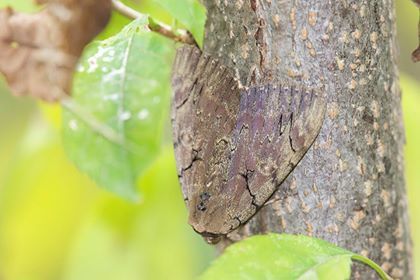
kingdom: Animalia
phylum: Arthropoda
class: Insecta
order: Lepidoptera
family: Erebidae
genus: Catocala
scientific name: Catocala cara
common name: Darling underwing
